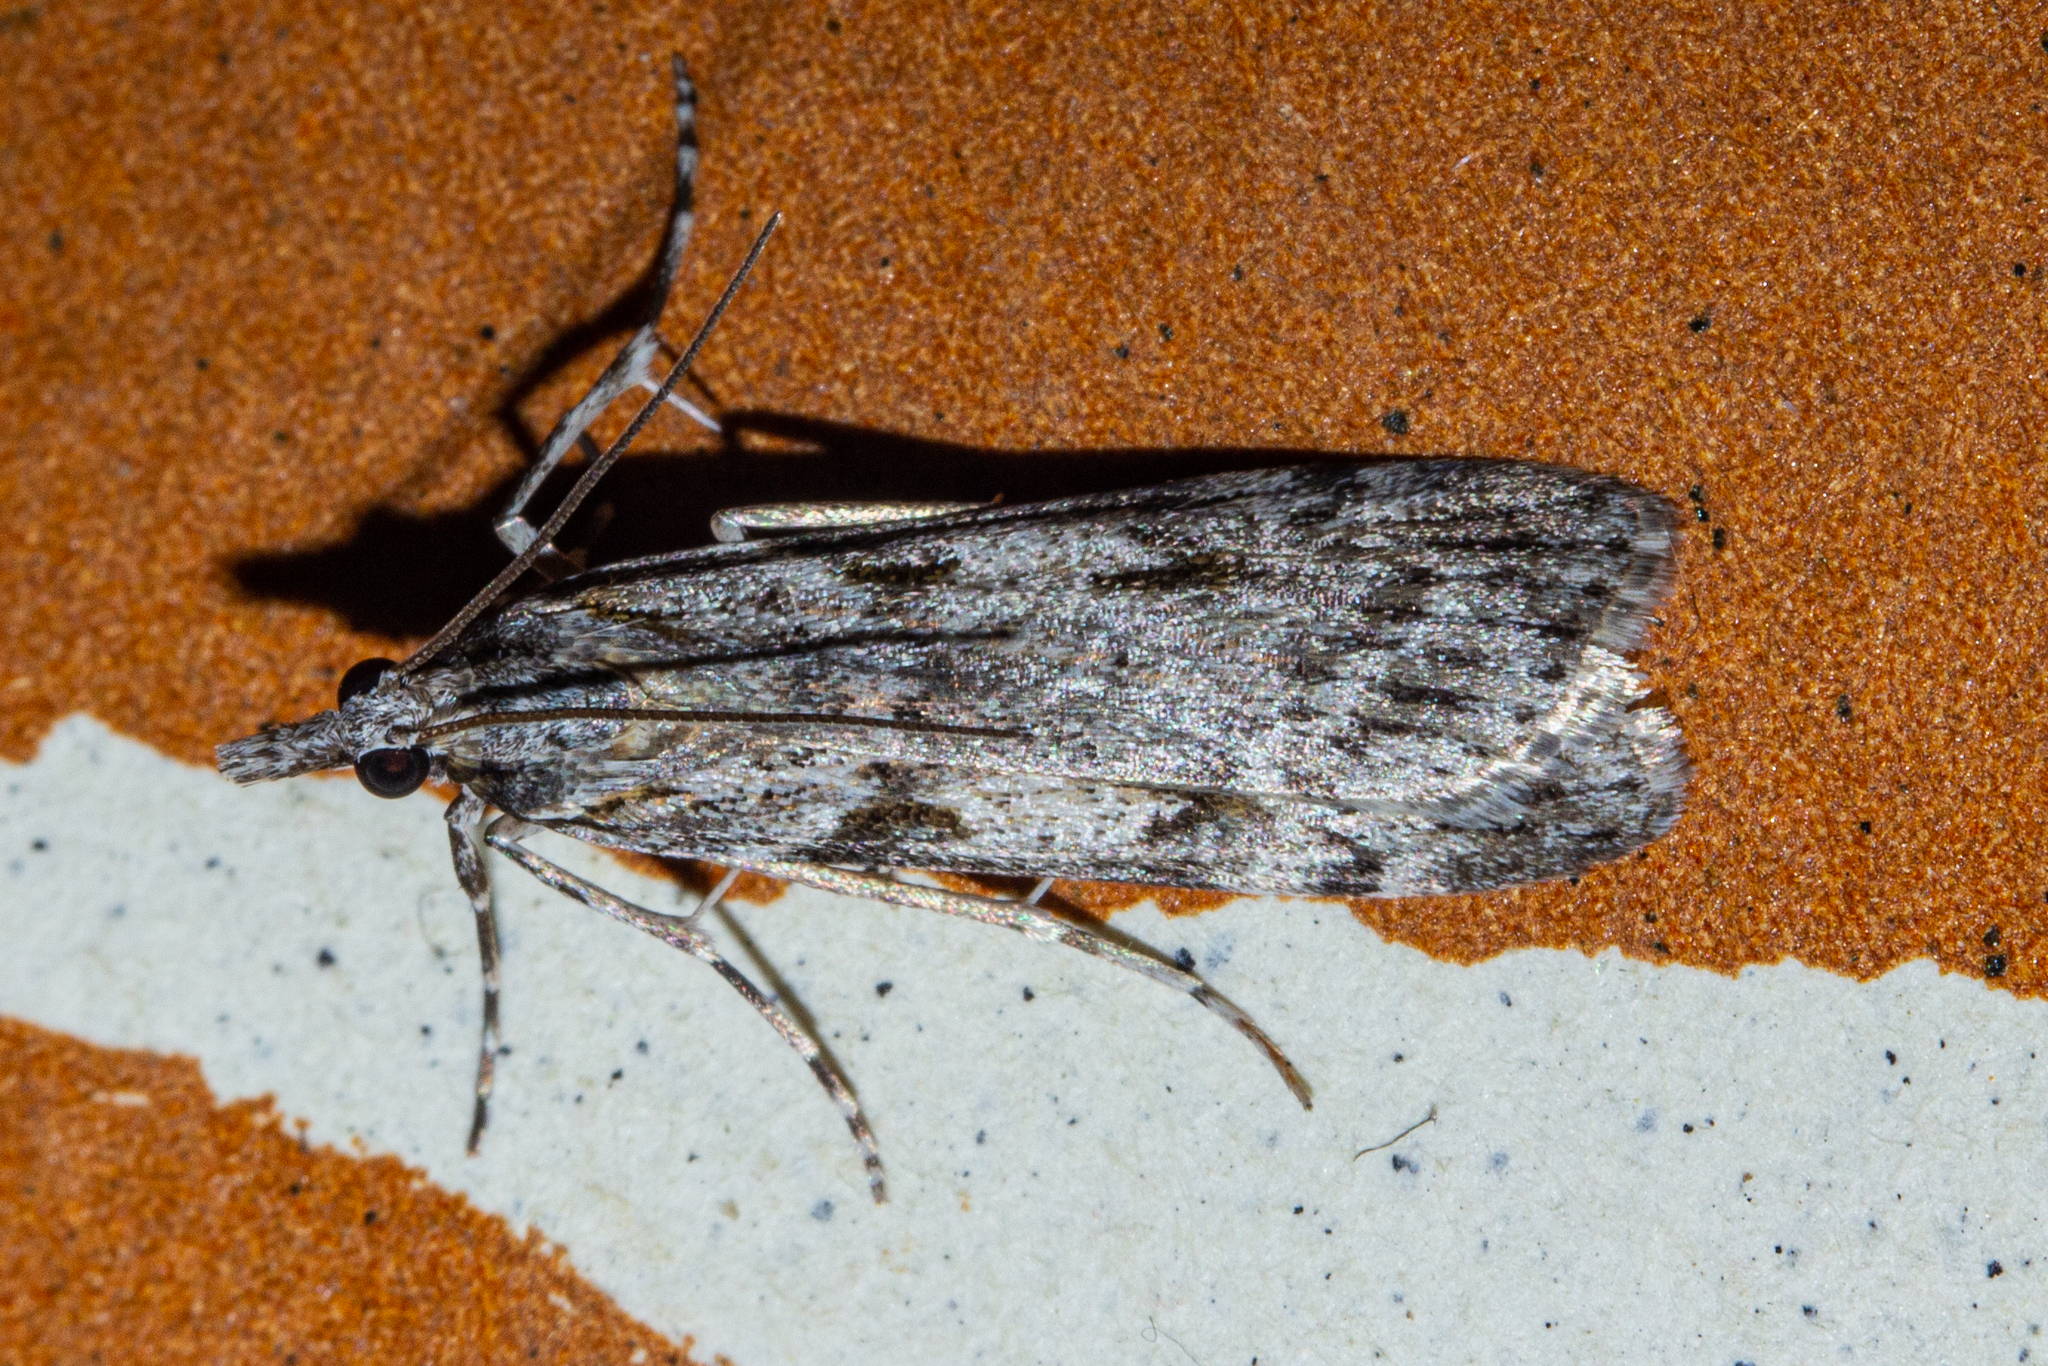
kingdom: Animalia
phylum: Arthropoda
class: Insecta
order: Lepidoptera
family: Crambidae
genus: Scoparia
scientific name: Scoparia halopis
